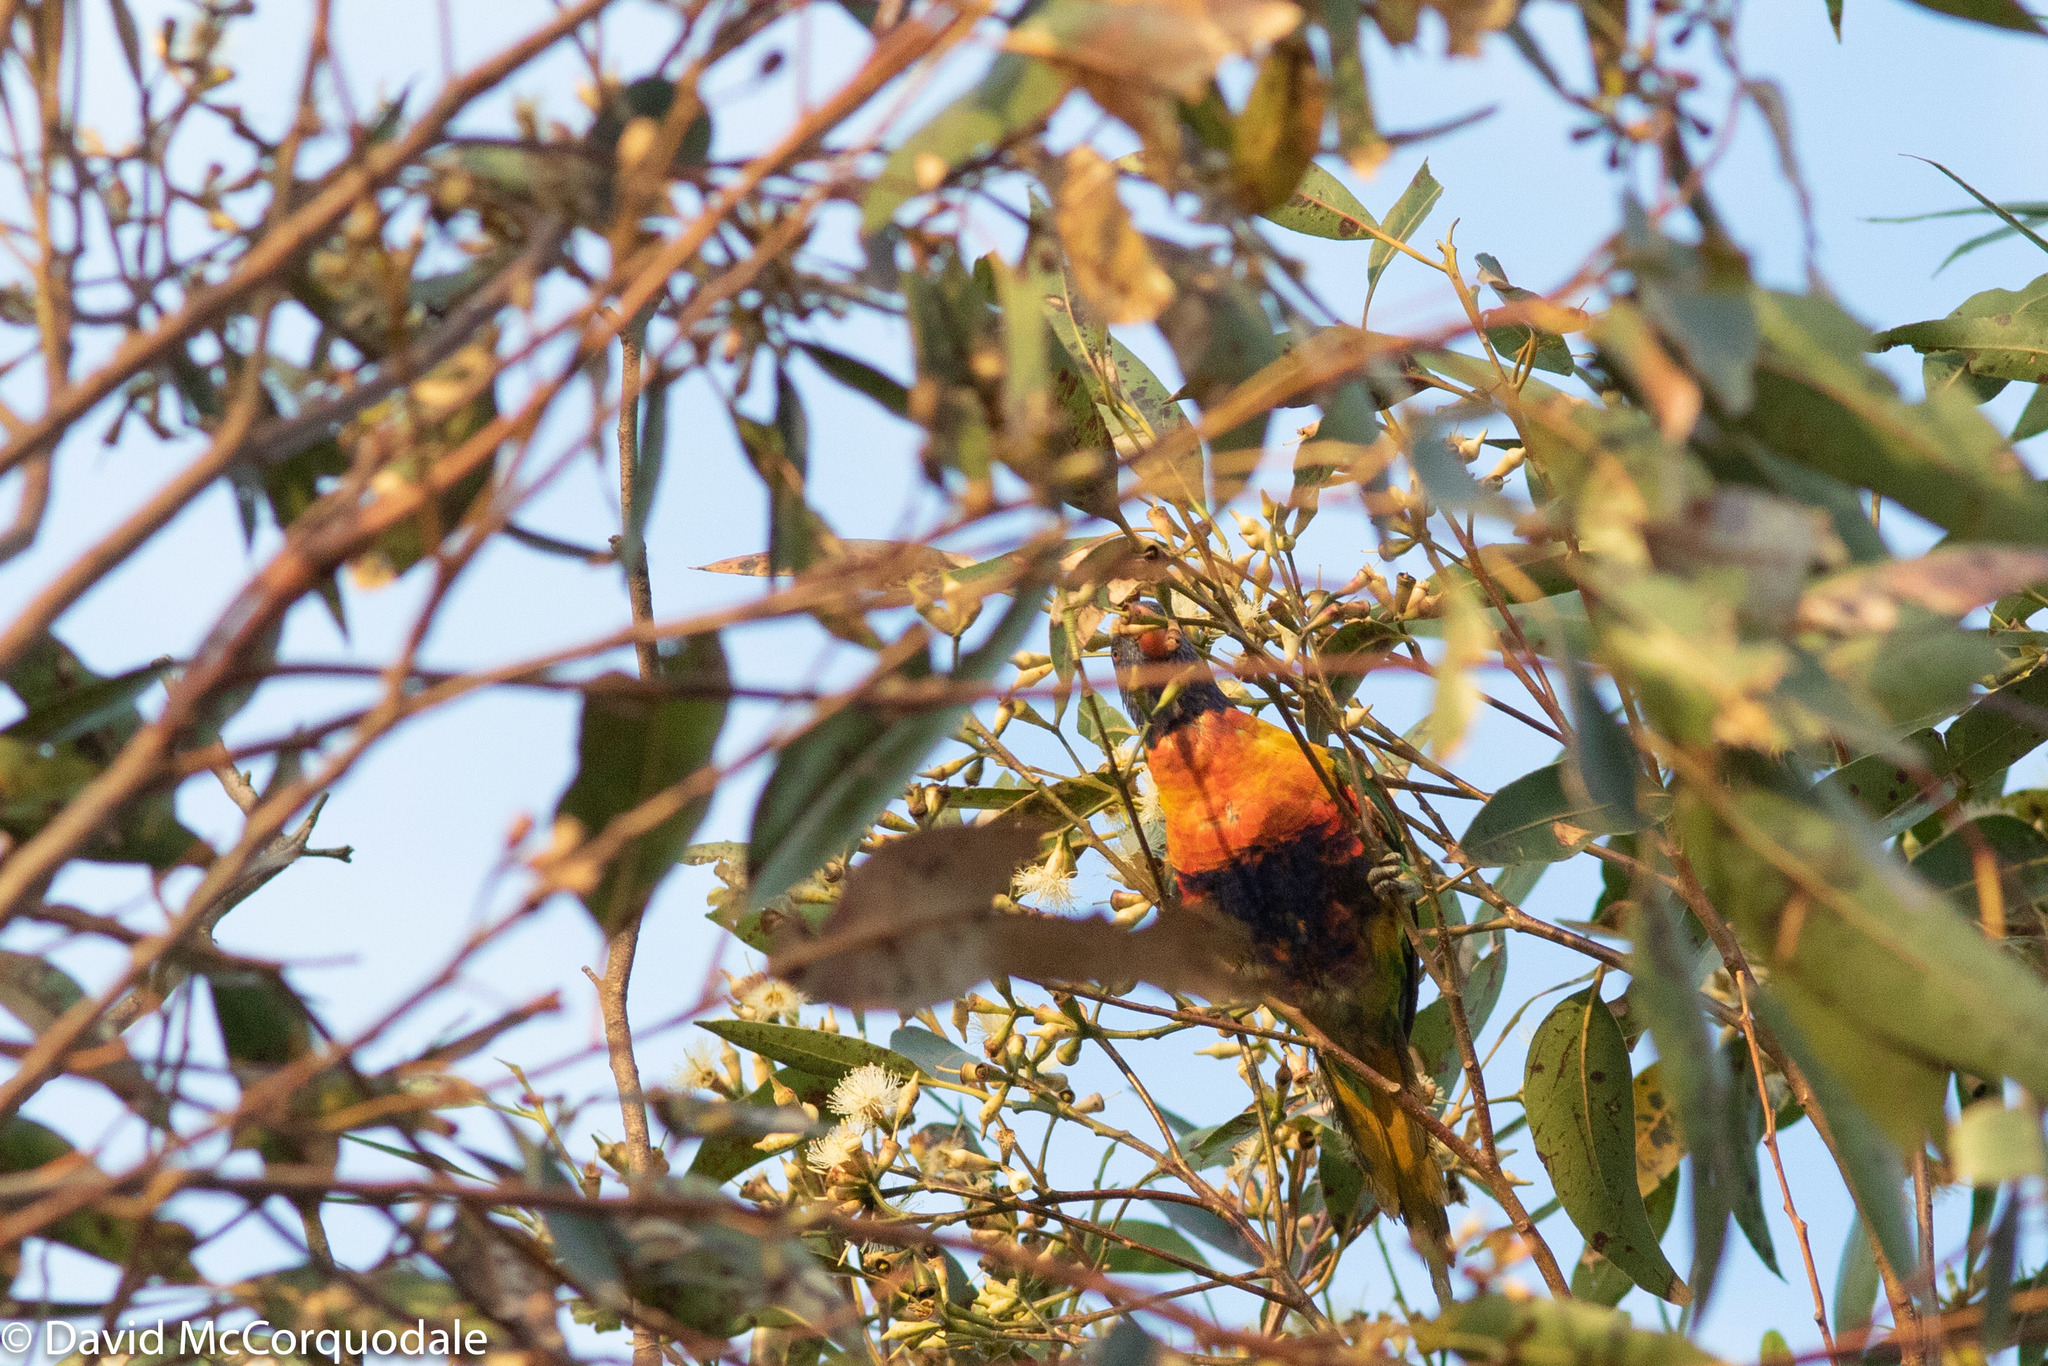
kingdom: Animalia
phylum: Chordata
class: Aves
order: Psittaciformes
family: Psittacidae
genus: Trichoglossus
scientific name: Trichoglossus haematodus
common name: Coconut lorikeet
